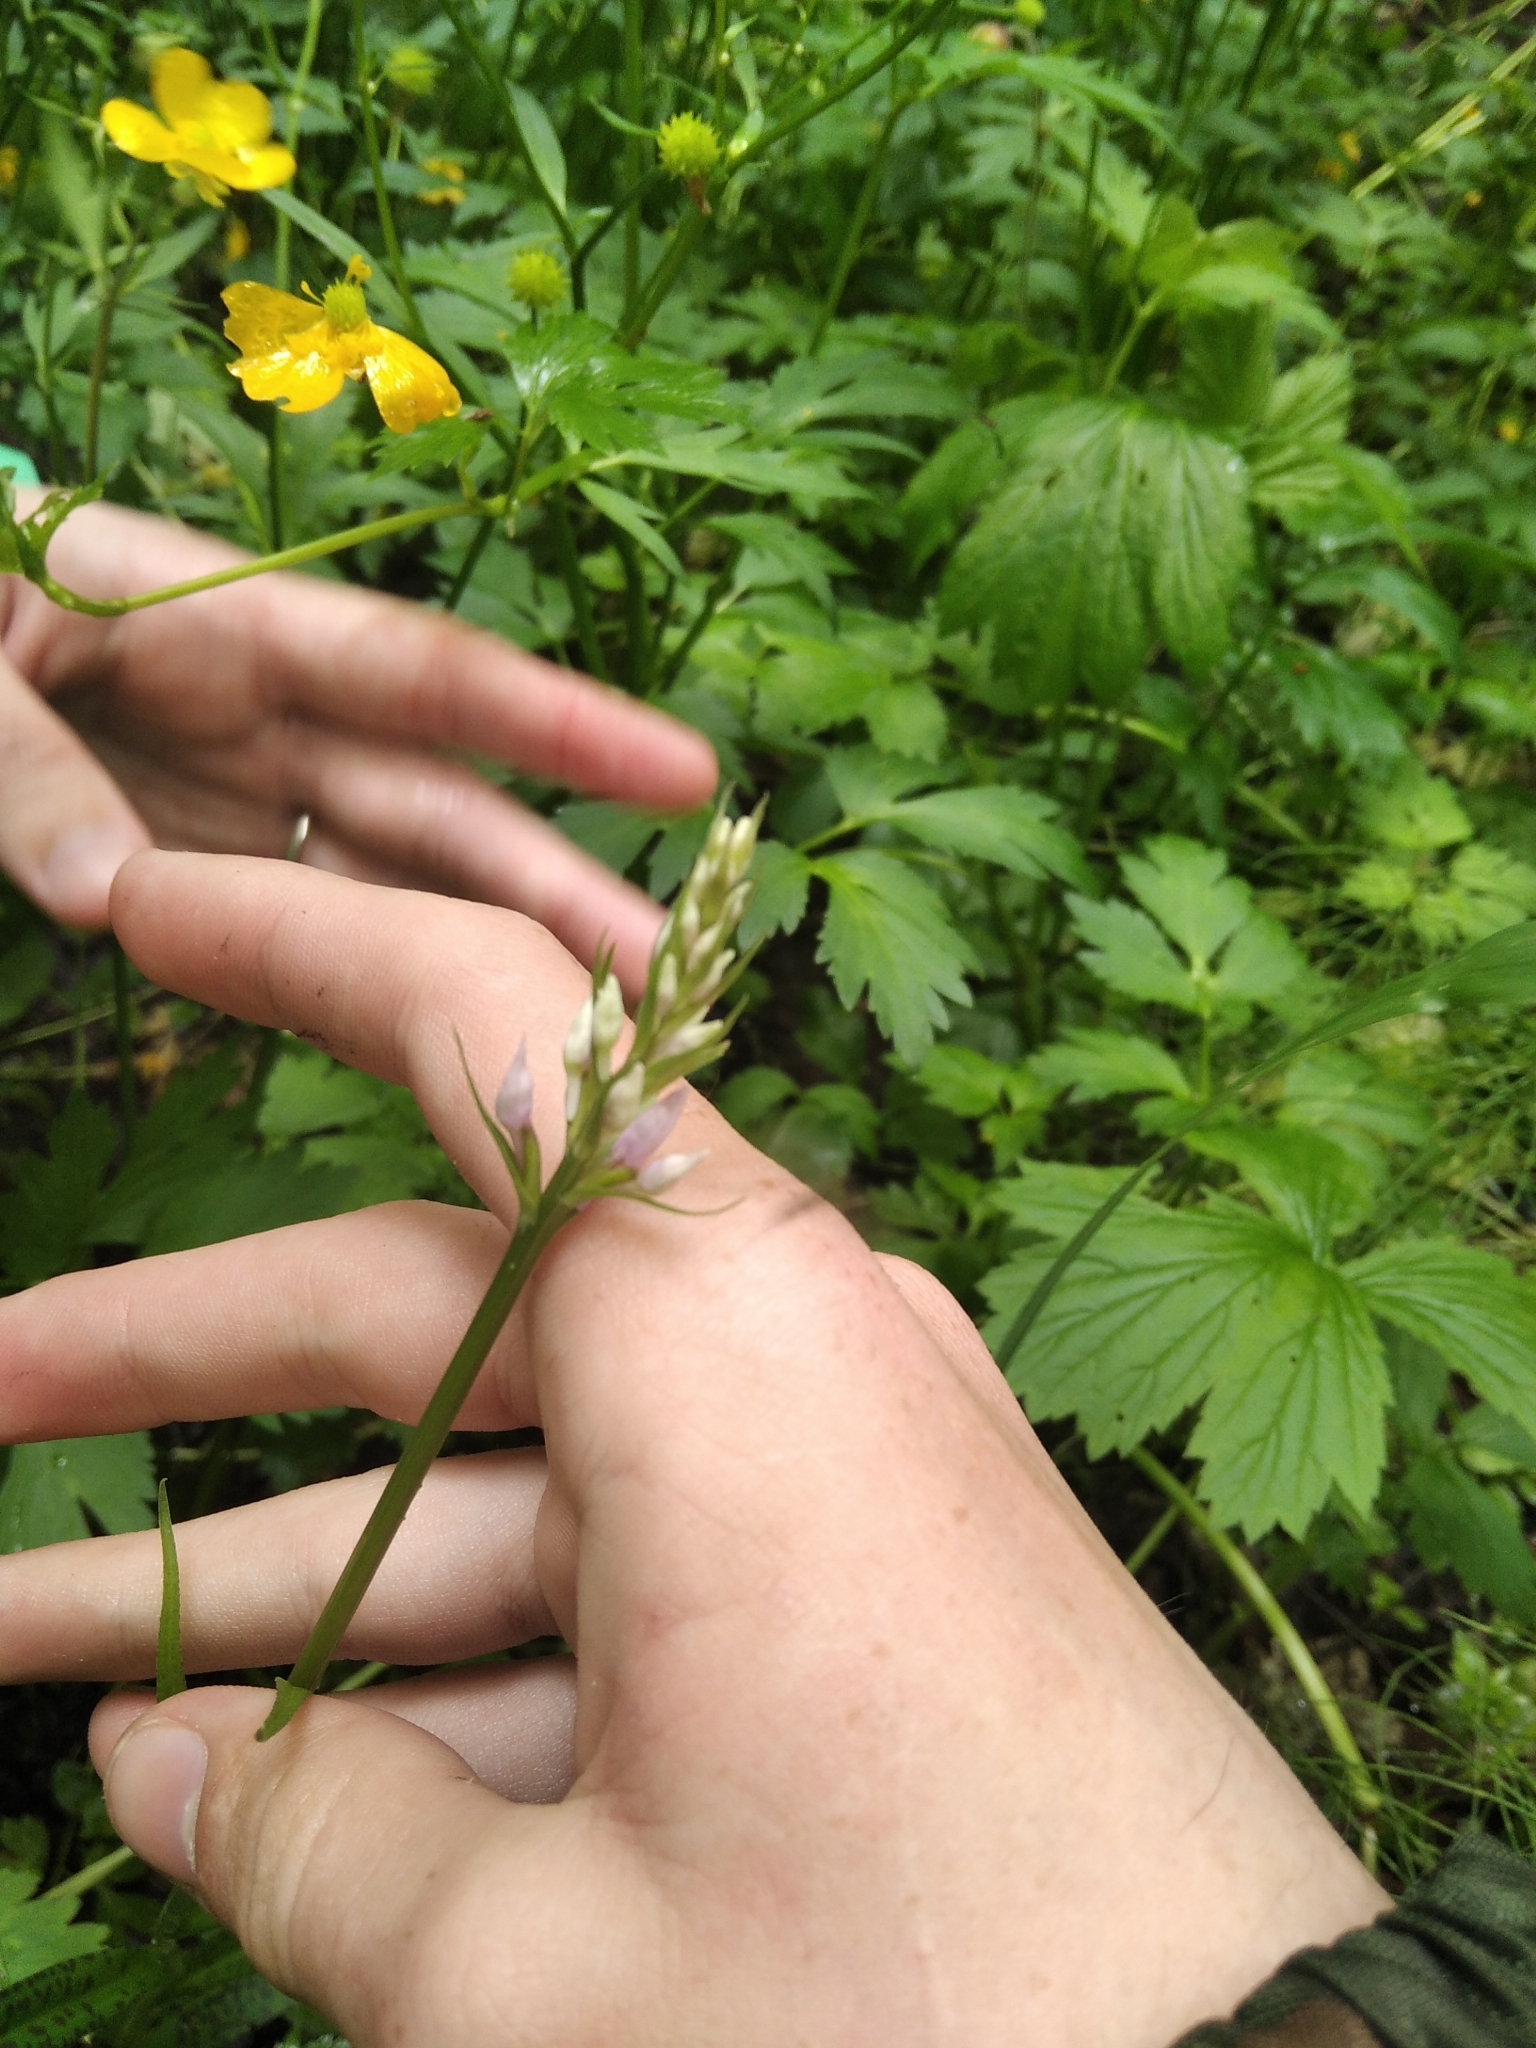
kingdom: Plantae
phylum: Tracheophyta
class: Liliopsida
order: Asparagales
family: Orchidaceae
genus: Dactylorhiza
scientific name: Dactylorhiza maculata
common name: Heath spotted-orchid
